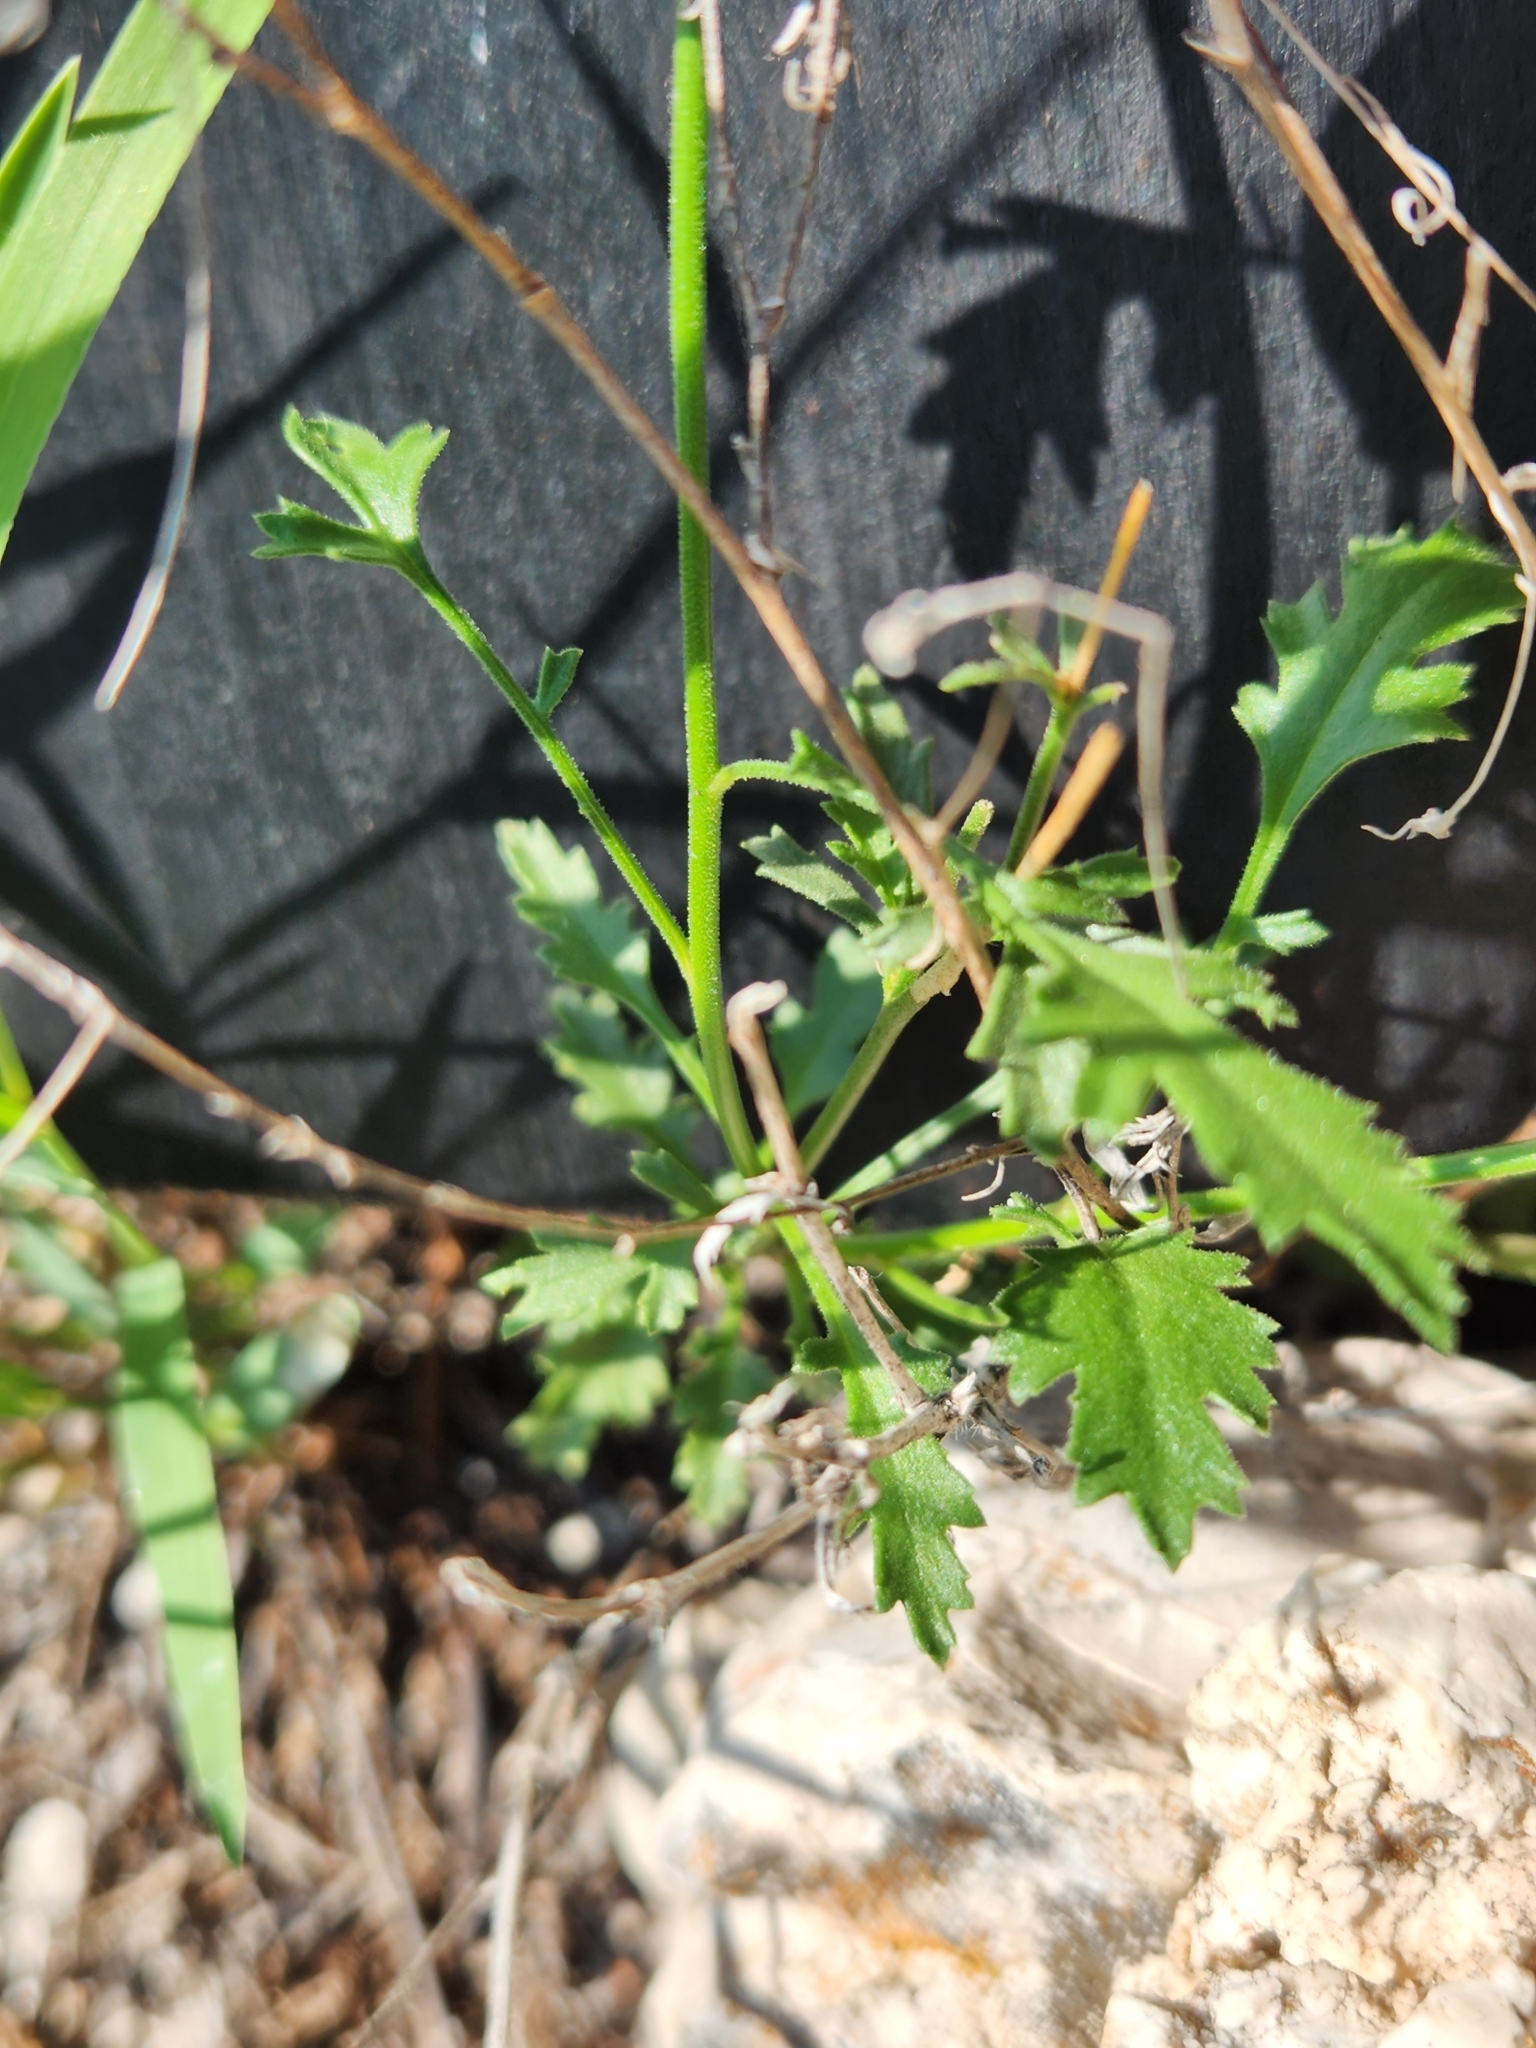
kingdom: Plantae
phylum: Tracheophyta
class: Magnoliopsida
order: Ericales
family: Polemoniaceae
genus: Giliastrum
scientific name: Giliastrum incisum
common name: Splitleaf gilia
